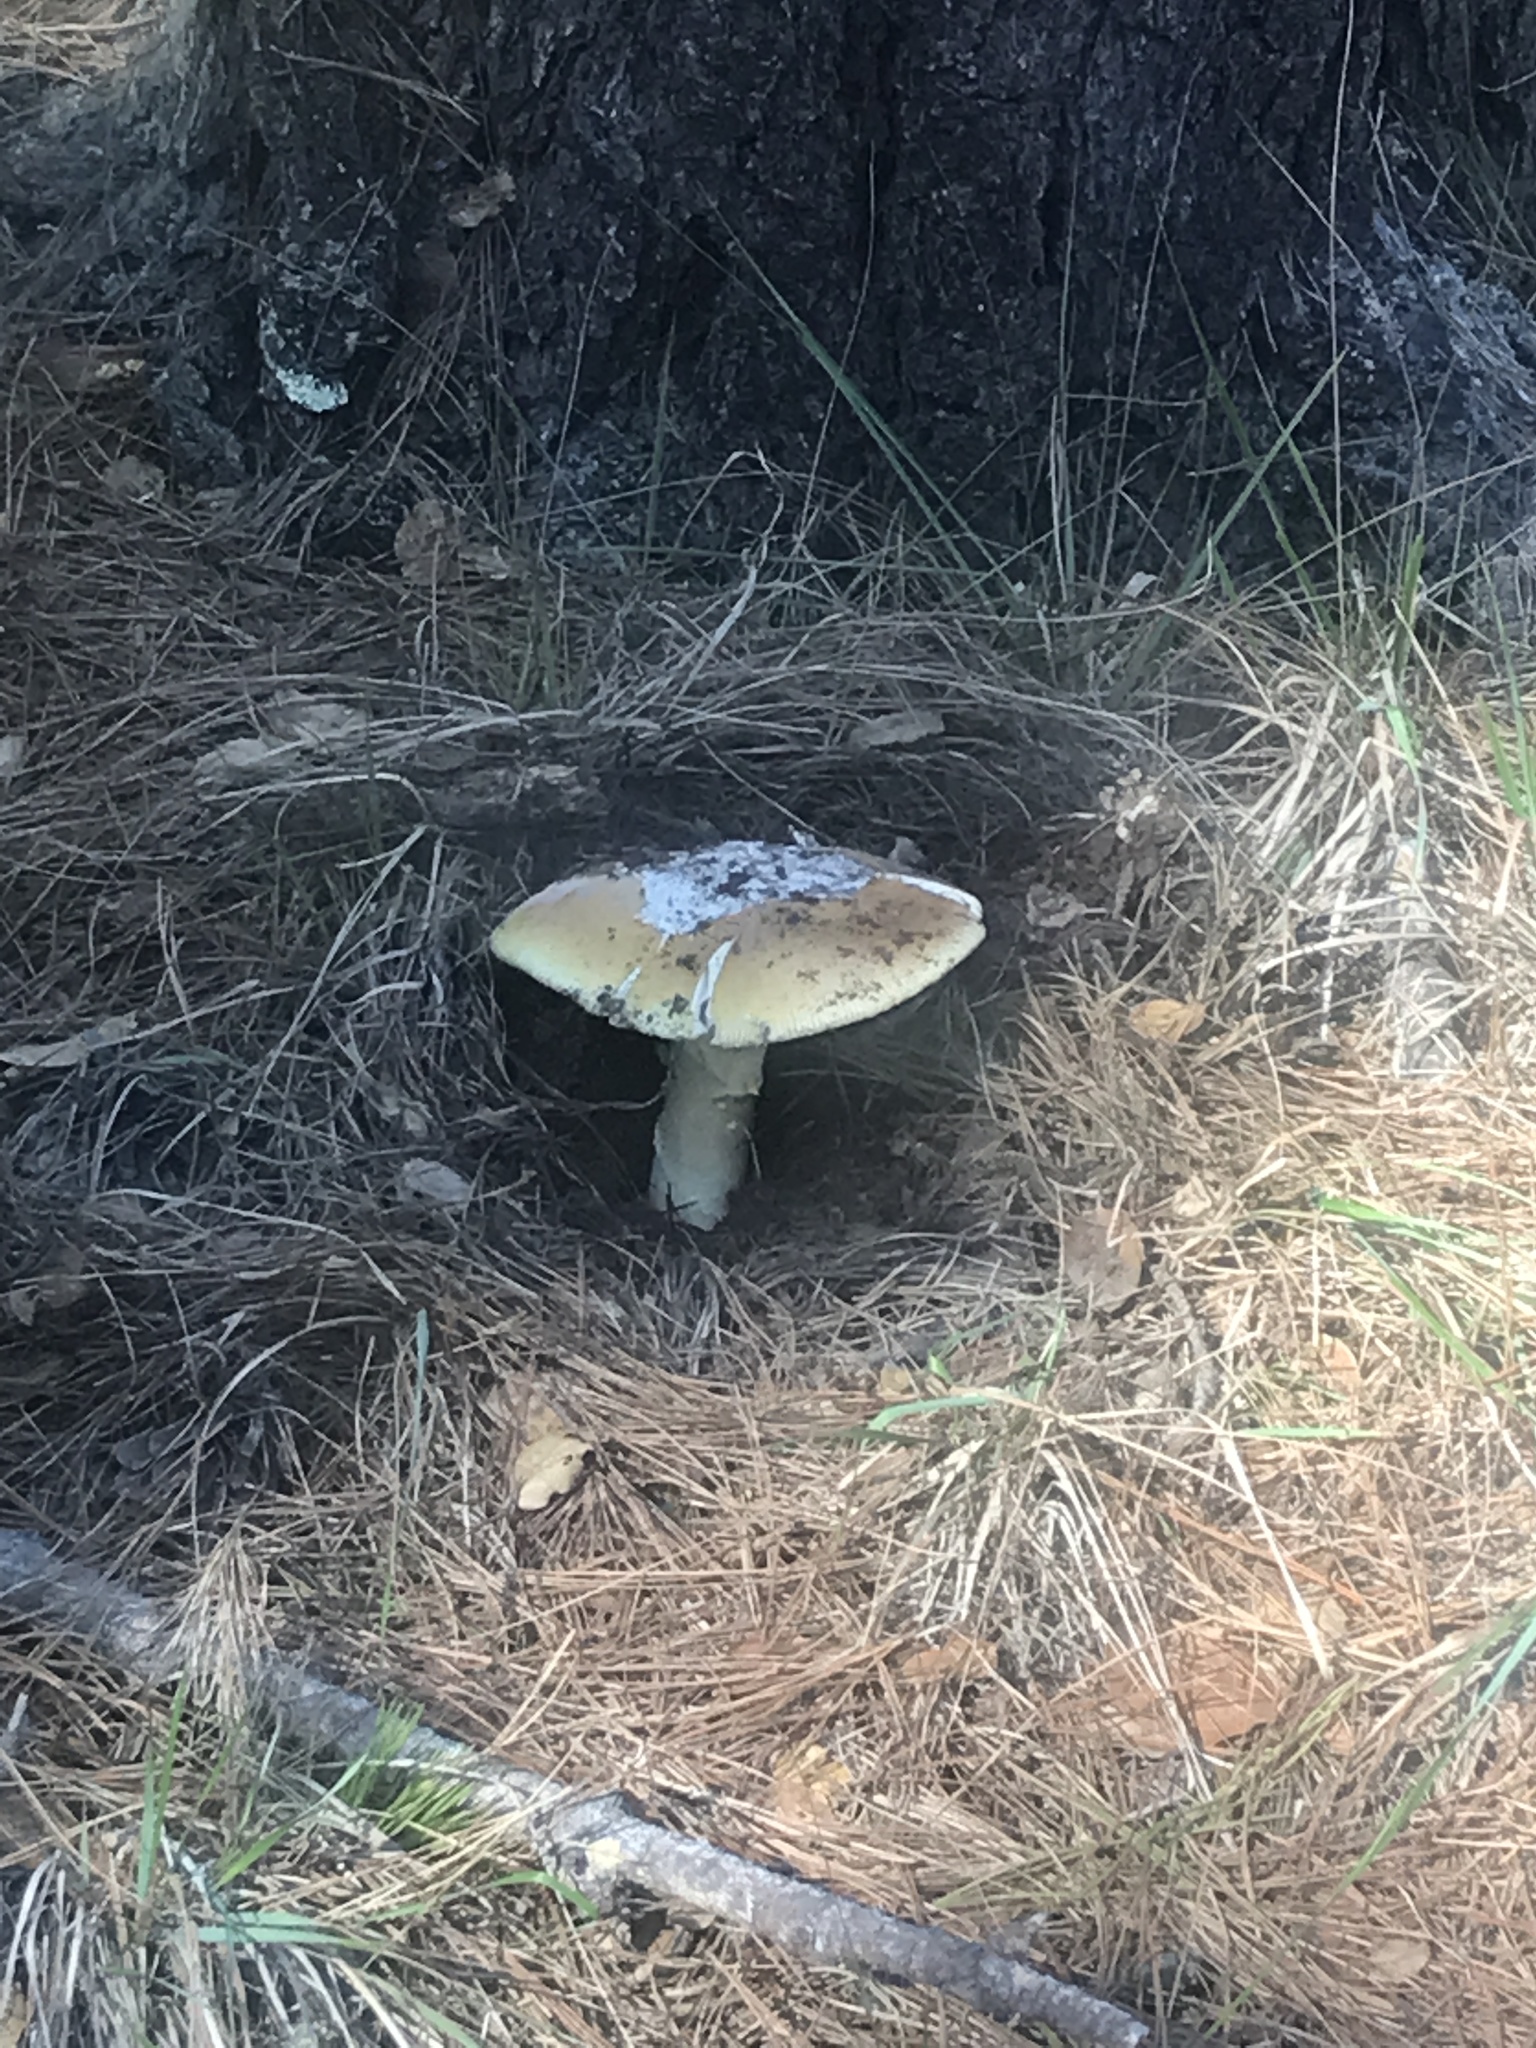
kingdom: Fungi
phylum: Basidiomycota
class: Agaricomycetes
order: Agaricales
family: Amanitaceae
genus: Amanita
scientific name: Amanita calyptroderma
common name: Coccora
